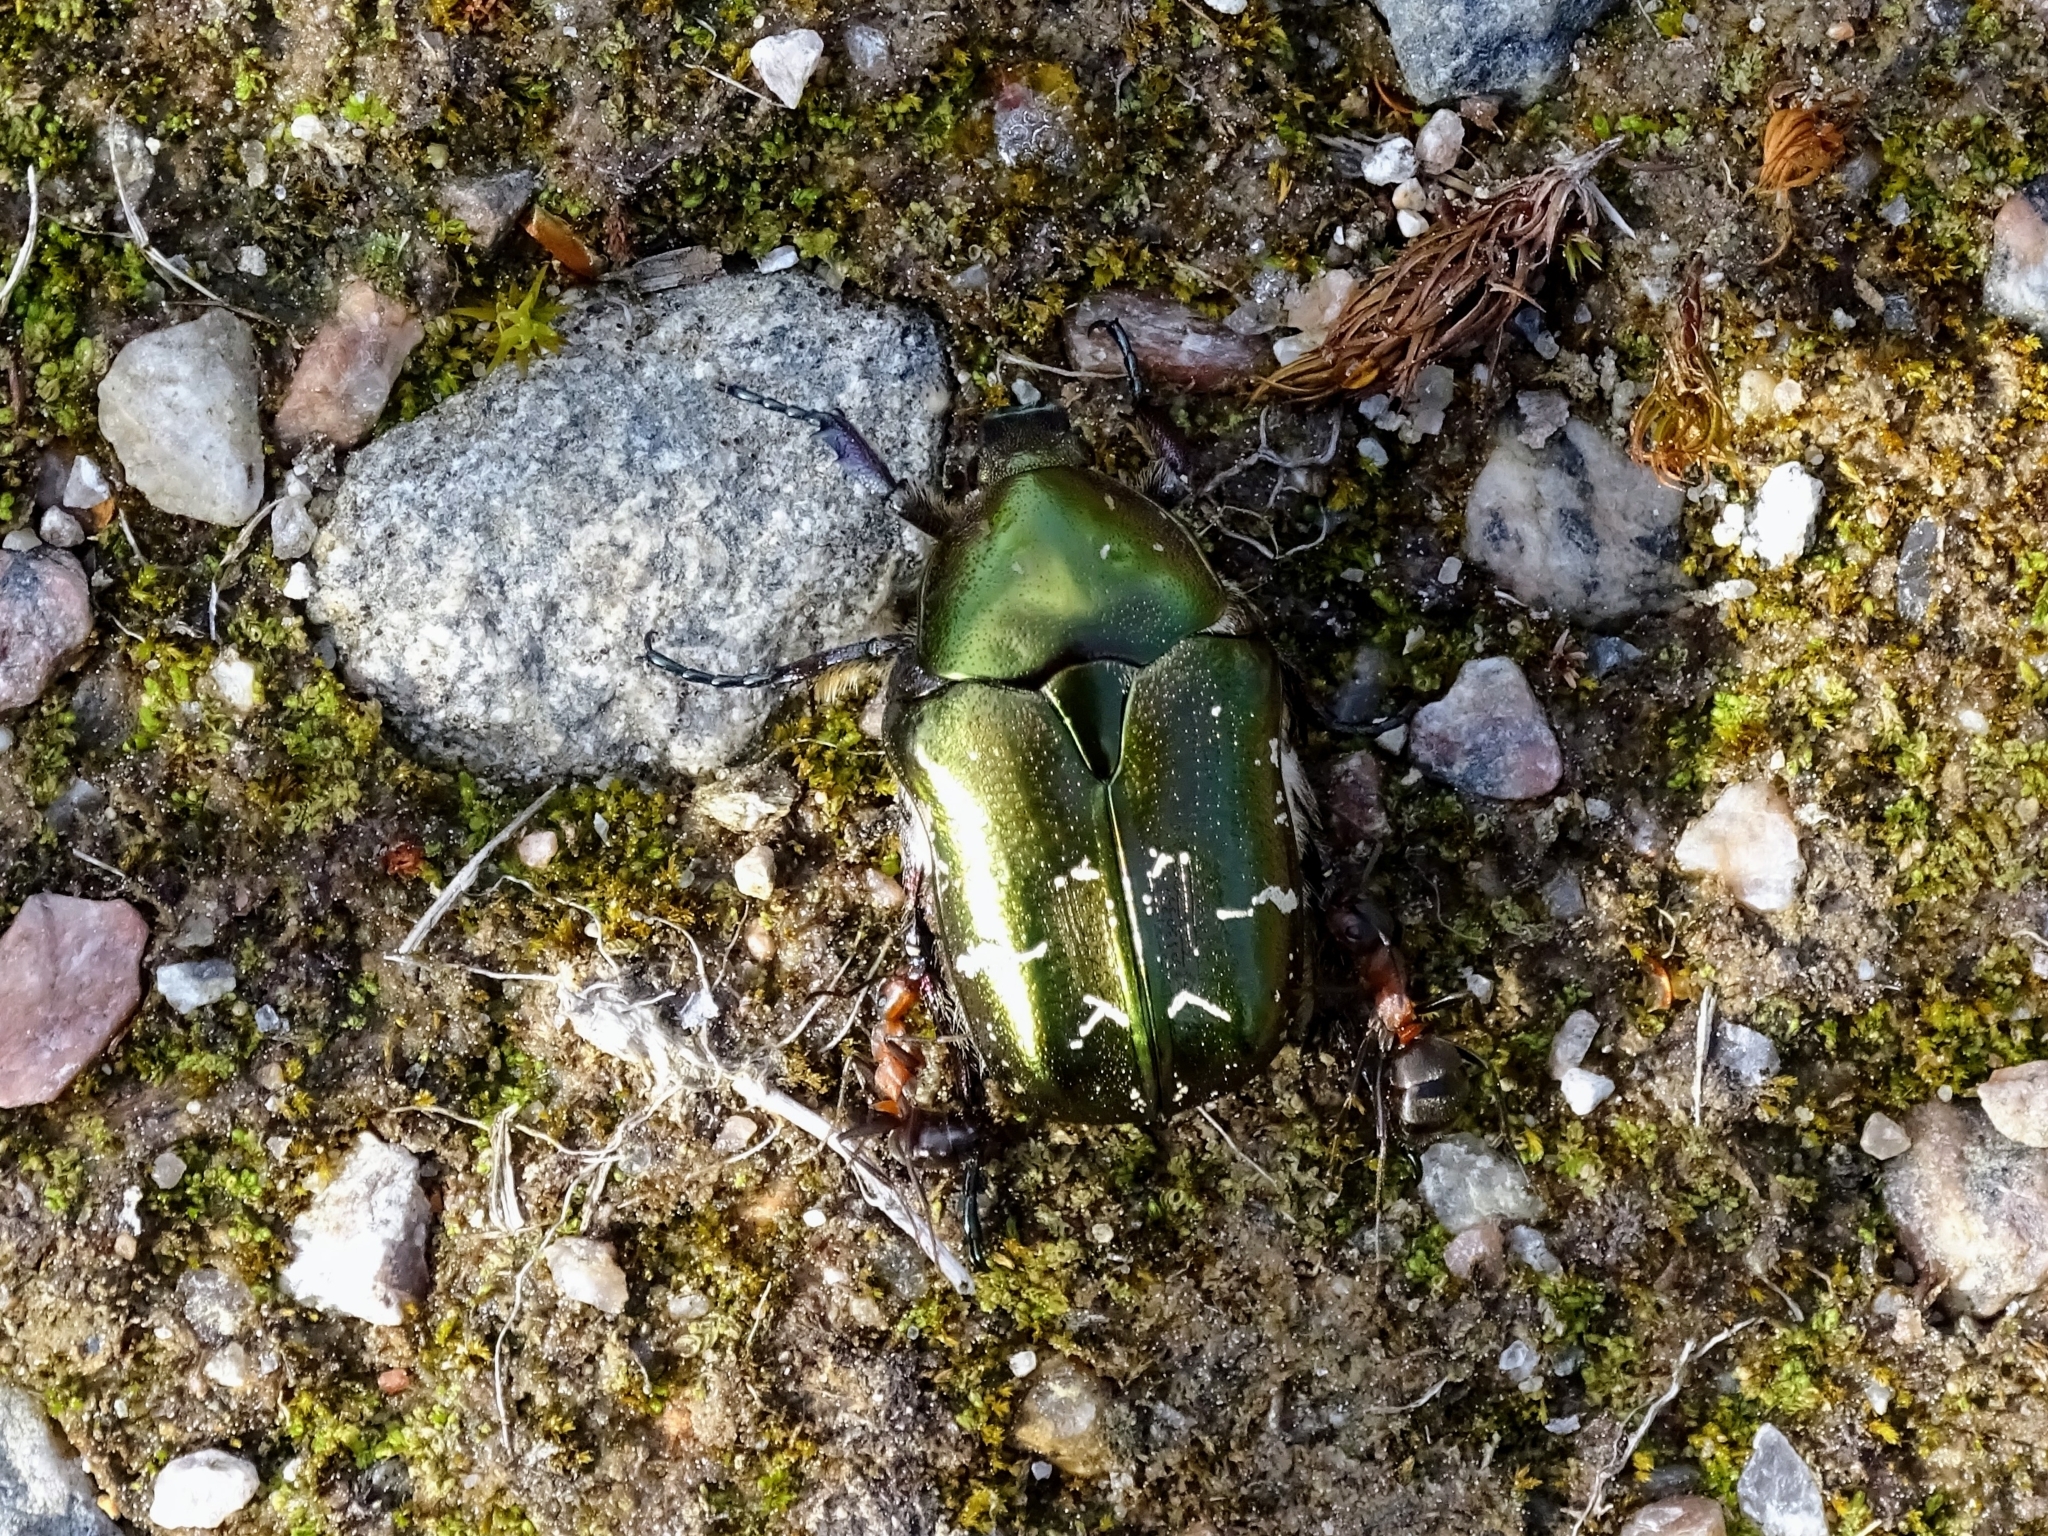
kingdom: Animalia
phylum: Arthropoda
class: Insecta
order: Coleoptera
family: Scarabaeidae
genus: Protaetia
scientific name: Protaetia cuprea
